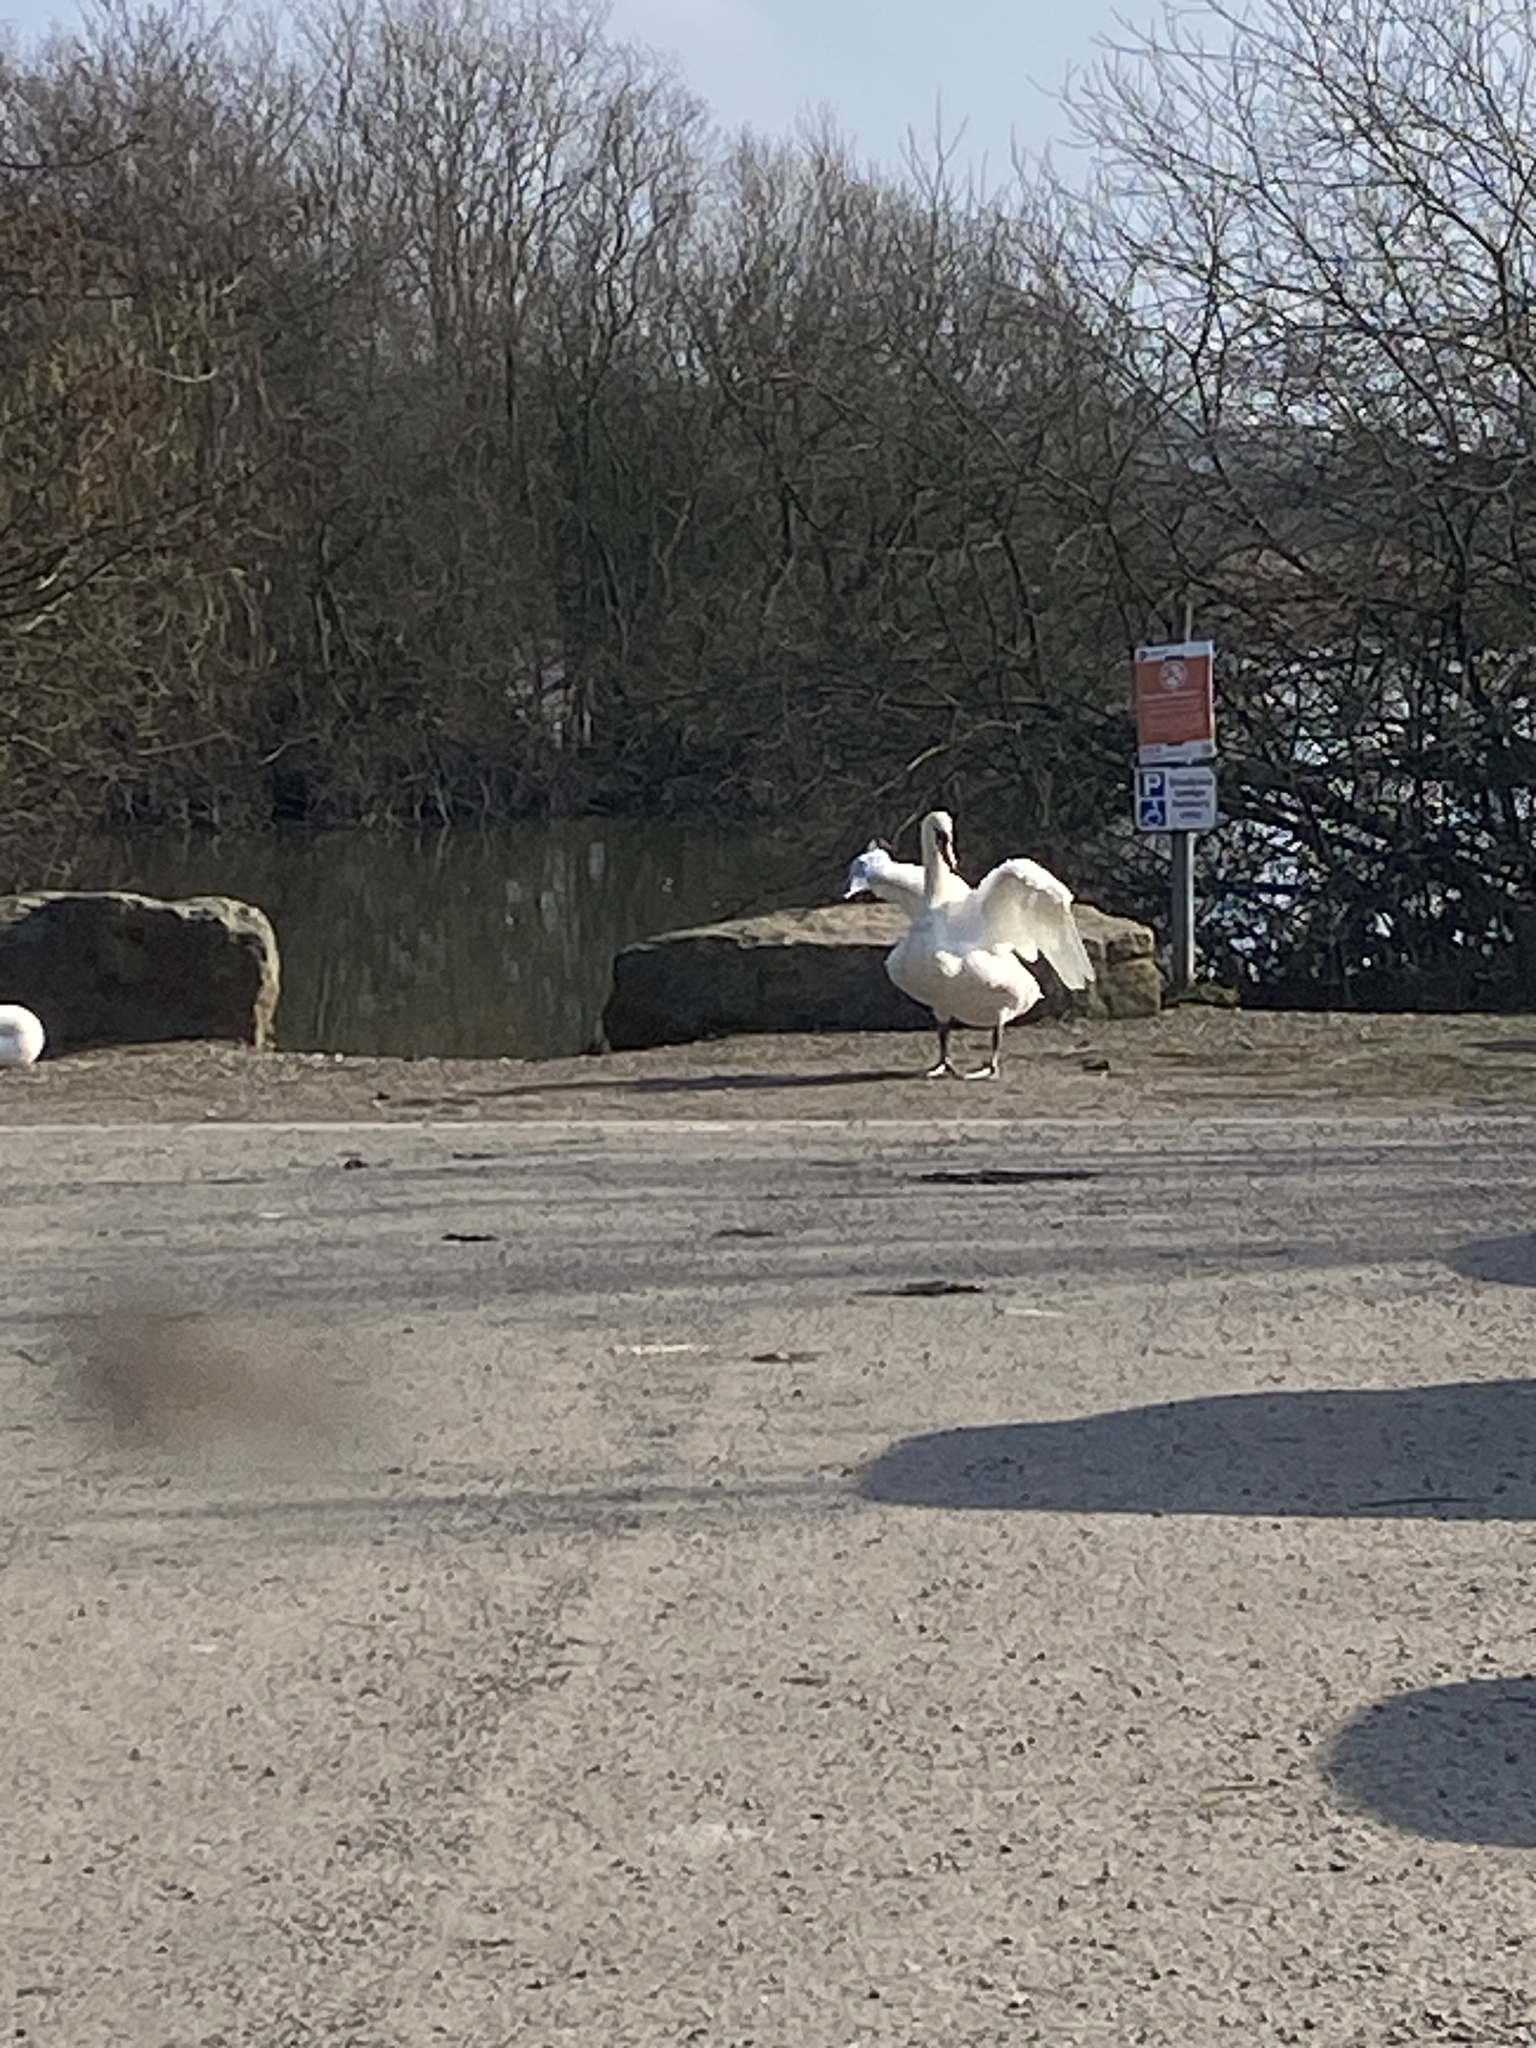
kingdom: Animalia
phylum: Chordata
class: Aves
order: Anseriformes
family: Anatidae
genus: Cygnus
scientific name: Cygnus olor
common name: Mute swan
